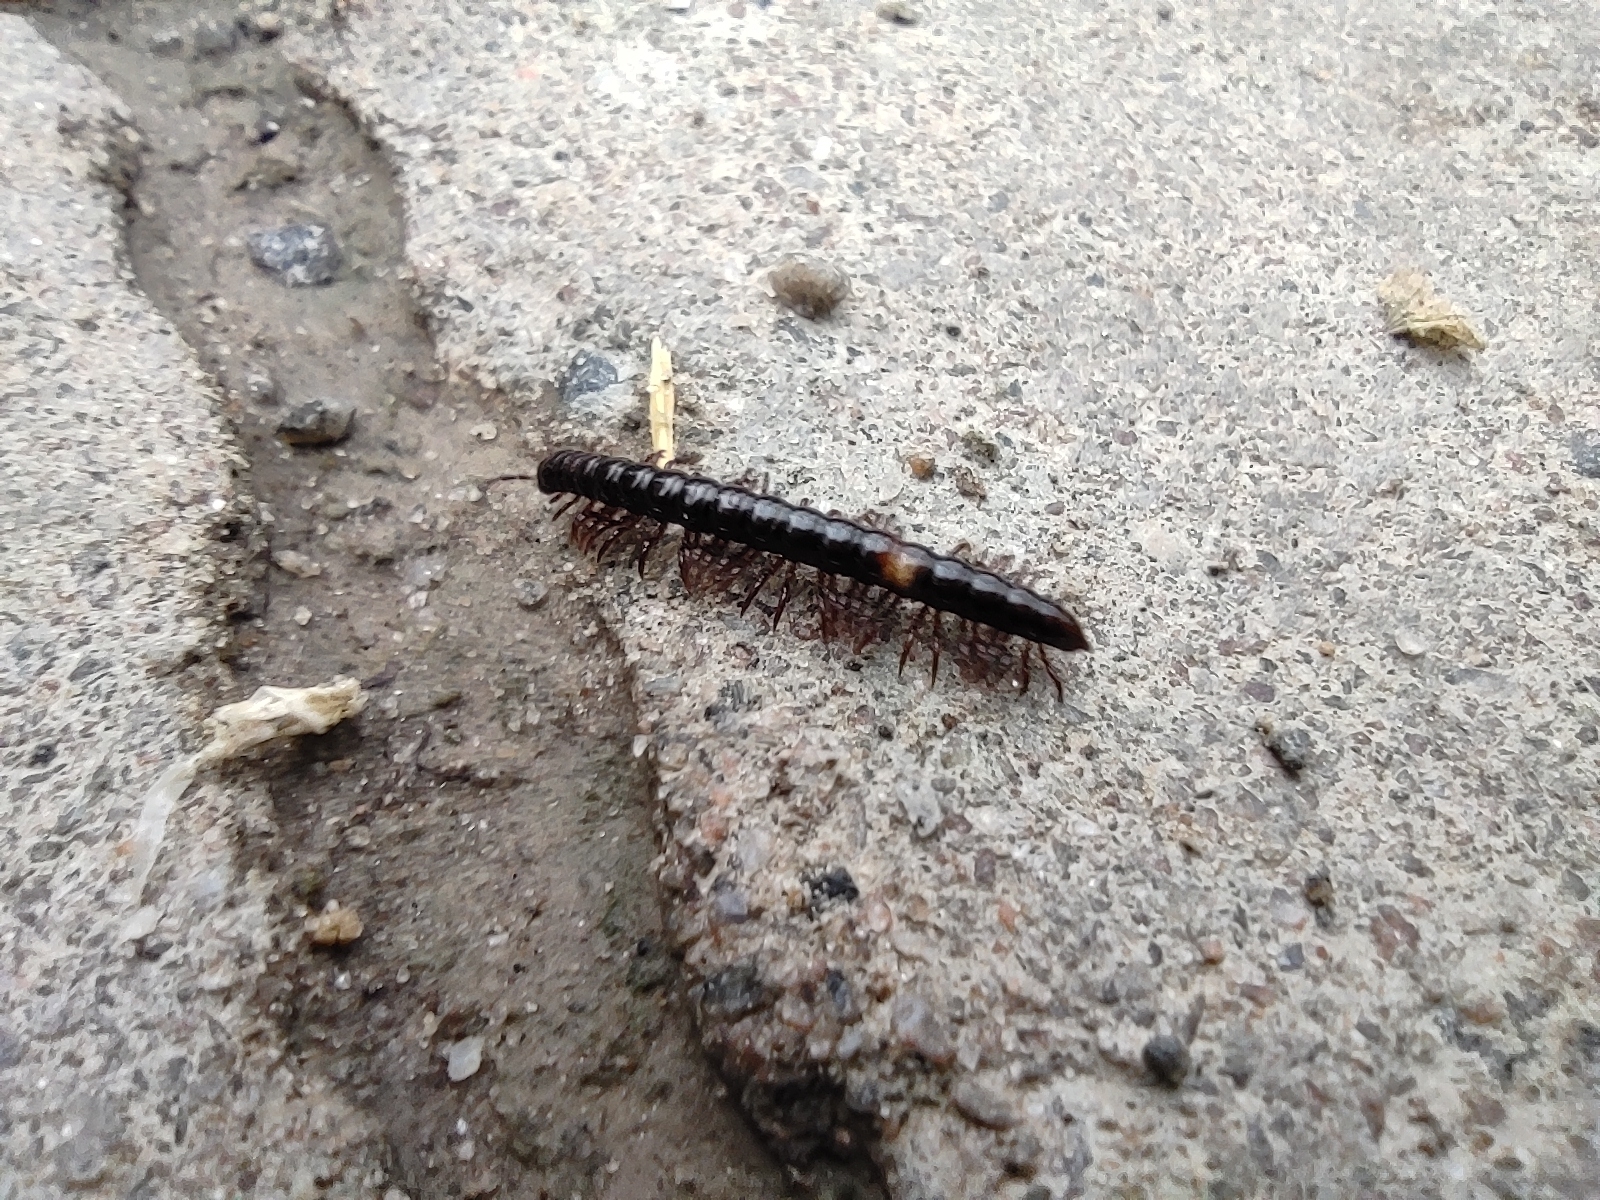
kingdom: Animalia
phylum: Arthropoda
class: Diplopoda
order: Polydesmida
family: Paradoxosomatidae
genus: Strongylosoma
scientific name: Strongylosoma stigmatosus
